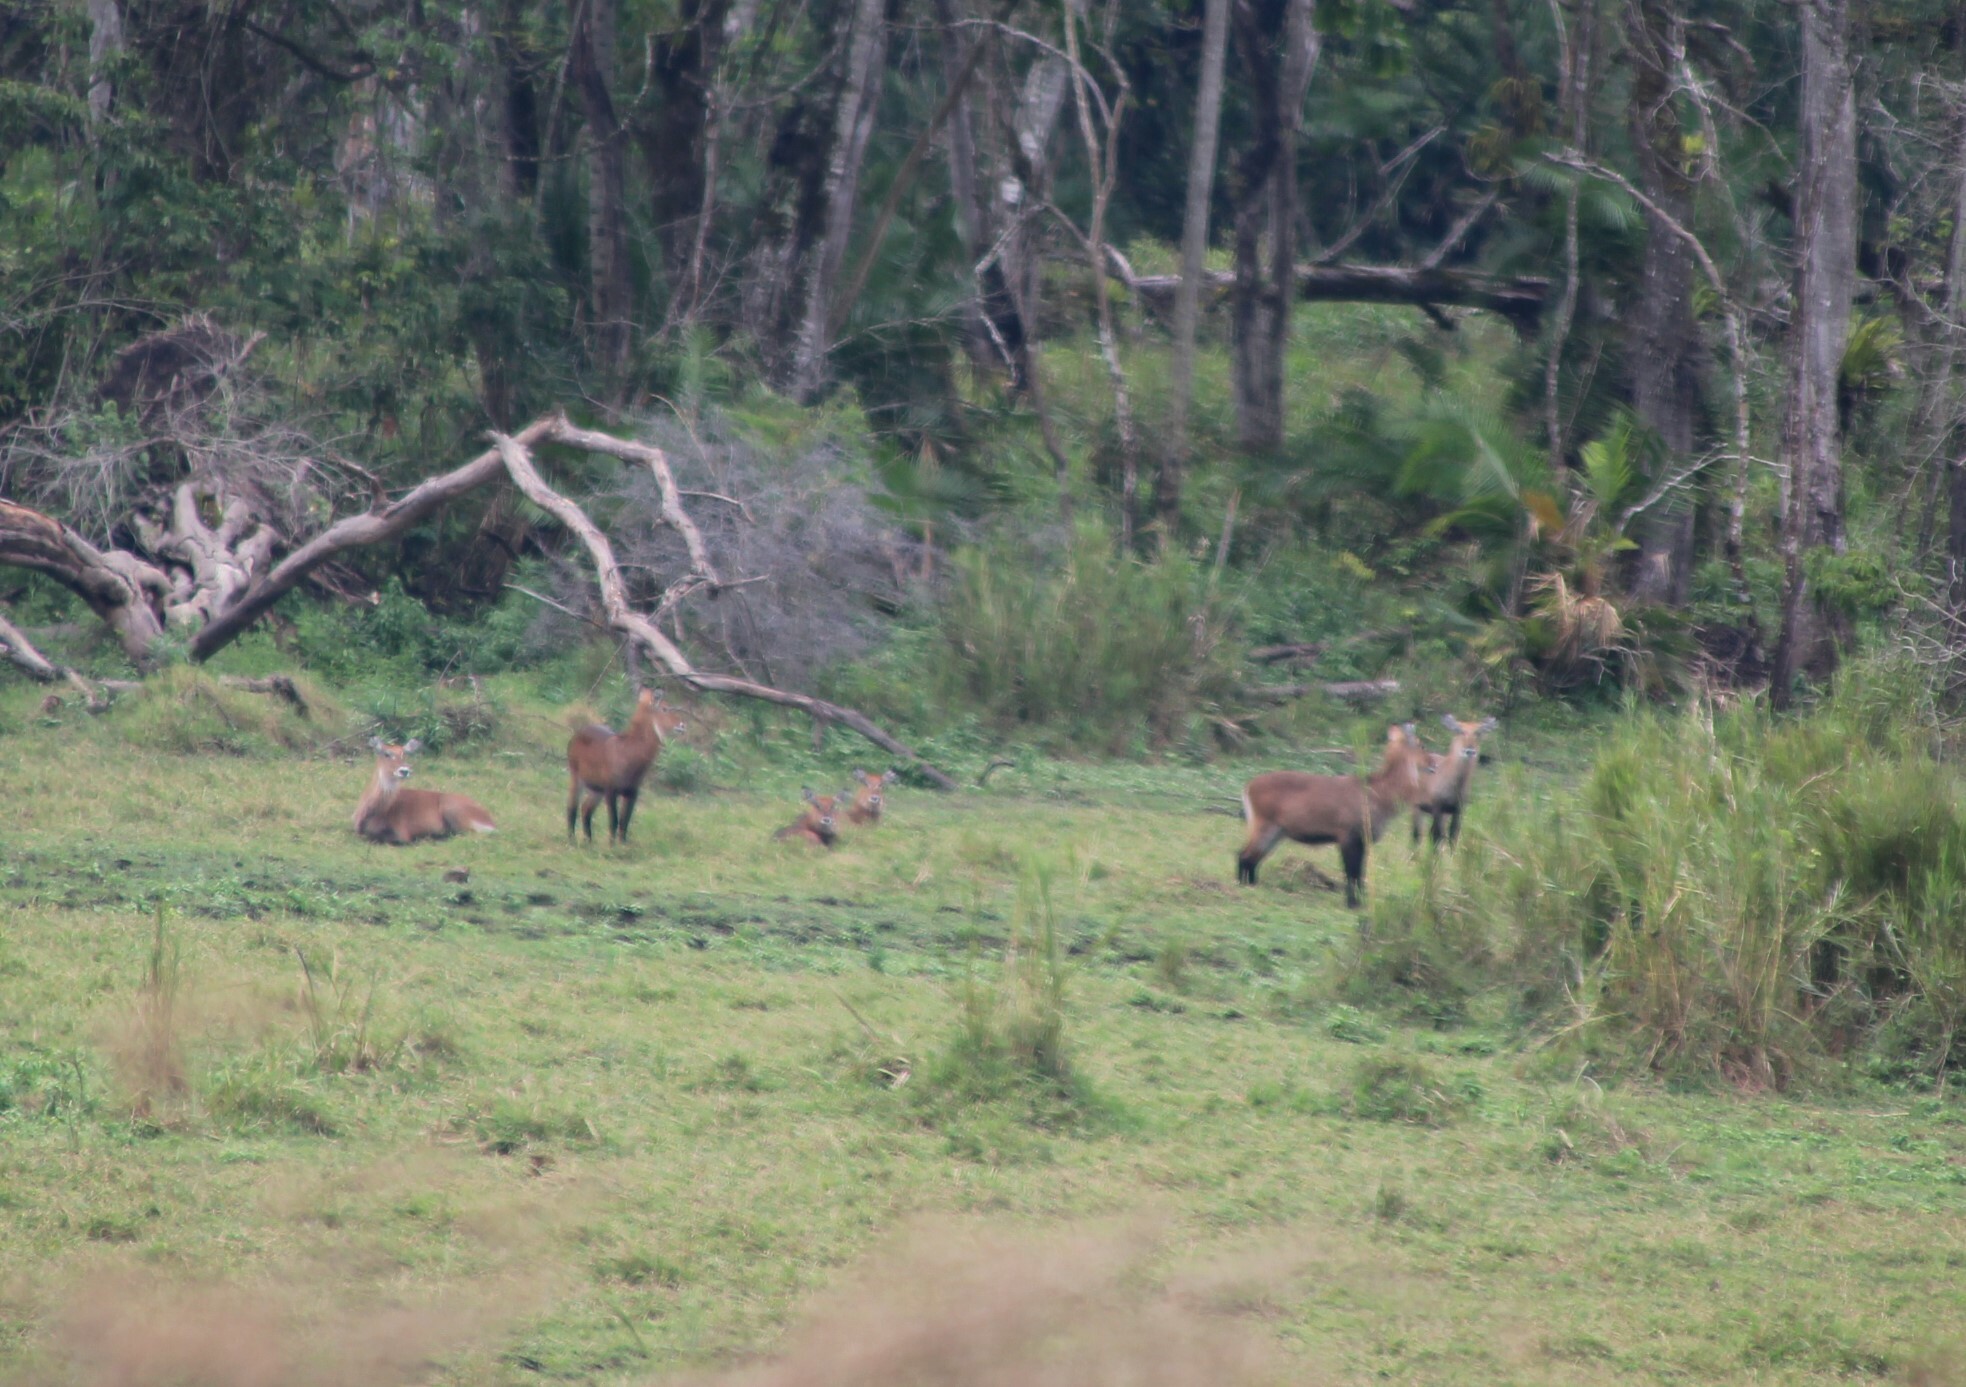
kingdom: Animalia
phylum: Chordata
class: Mammalia
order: Artiodactyla
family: Bovidae
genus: Kobus
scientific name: Kobus ellipsiprymnus
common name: Waterbuck
